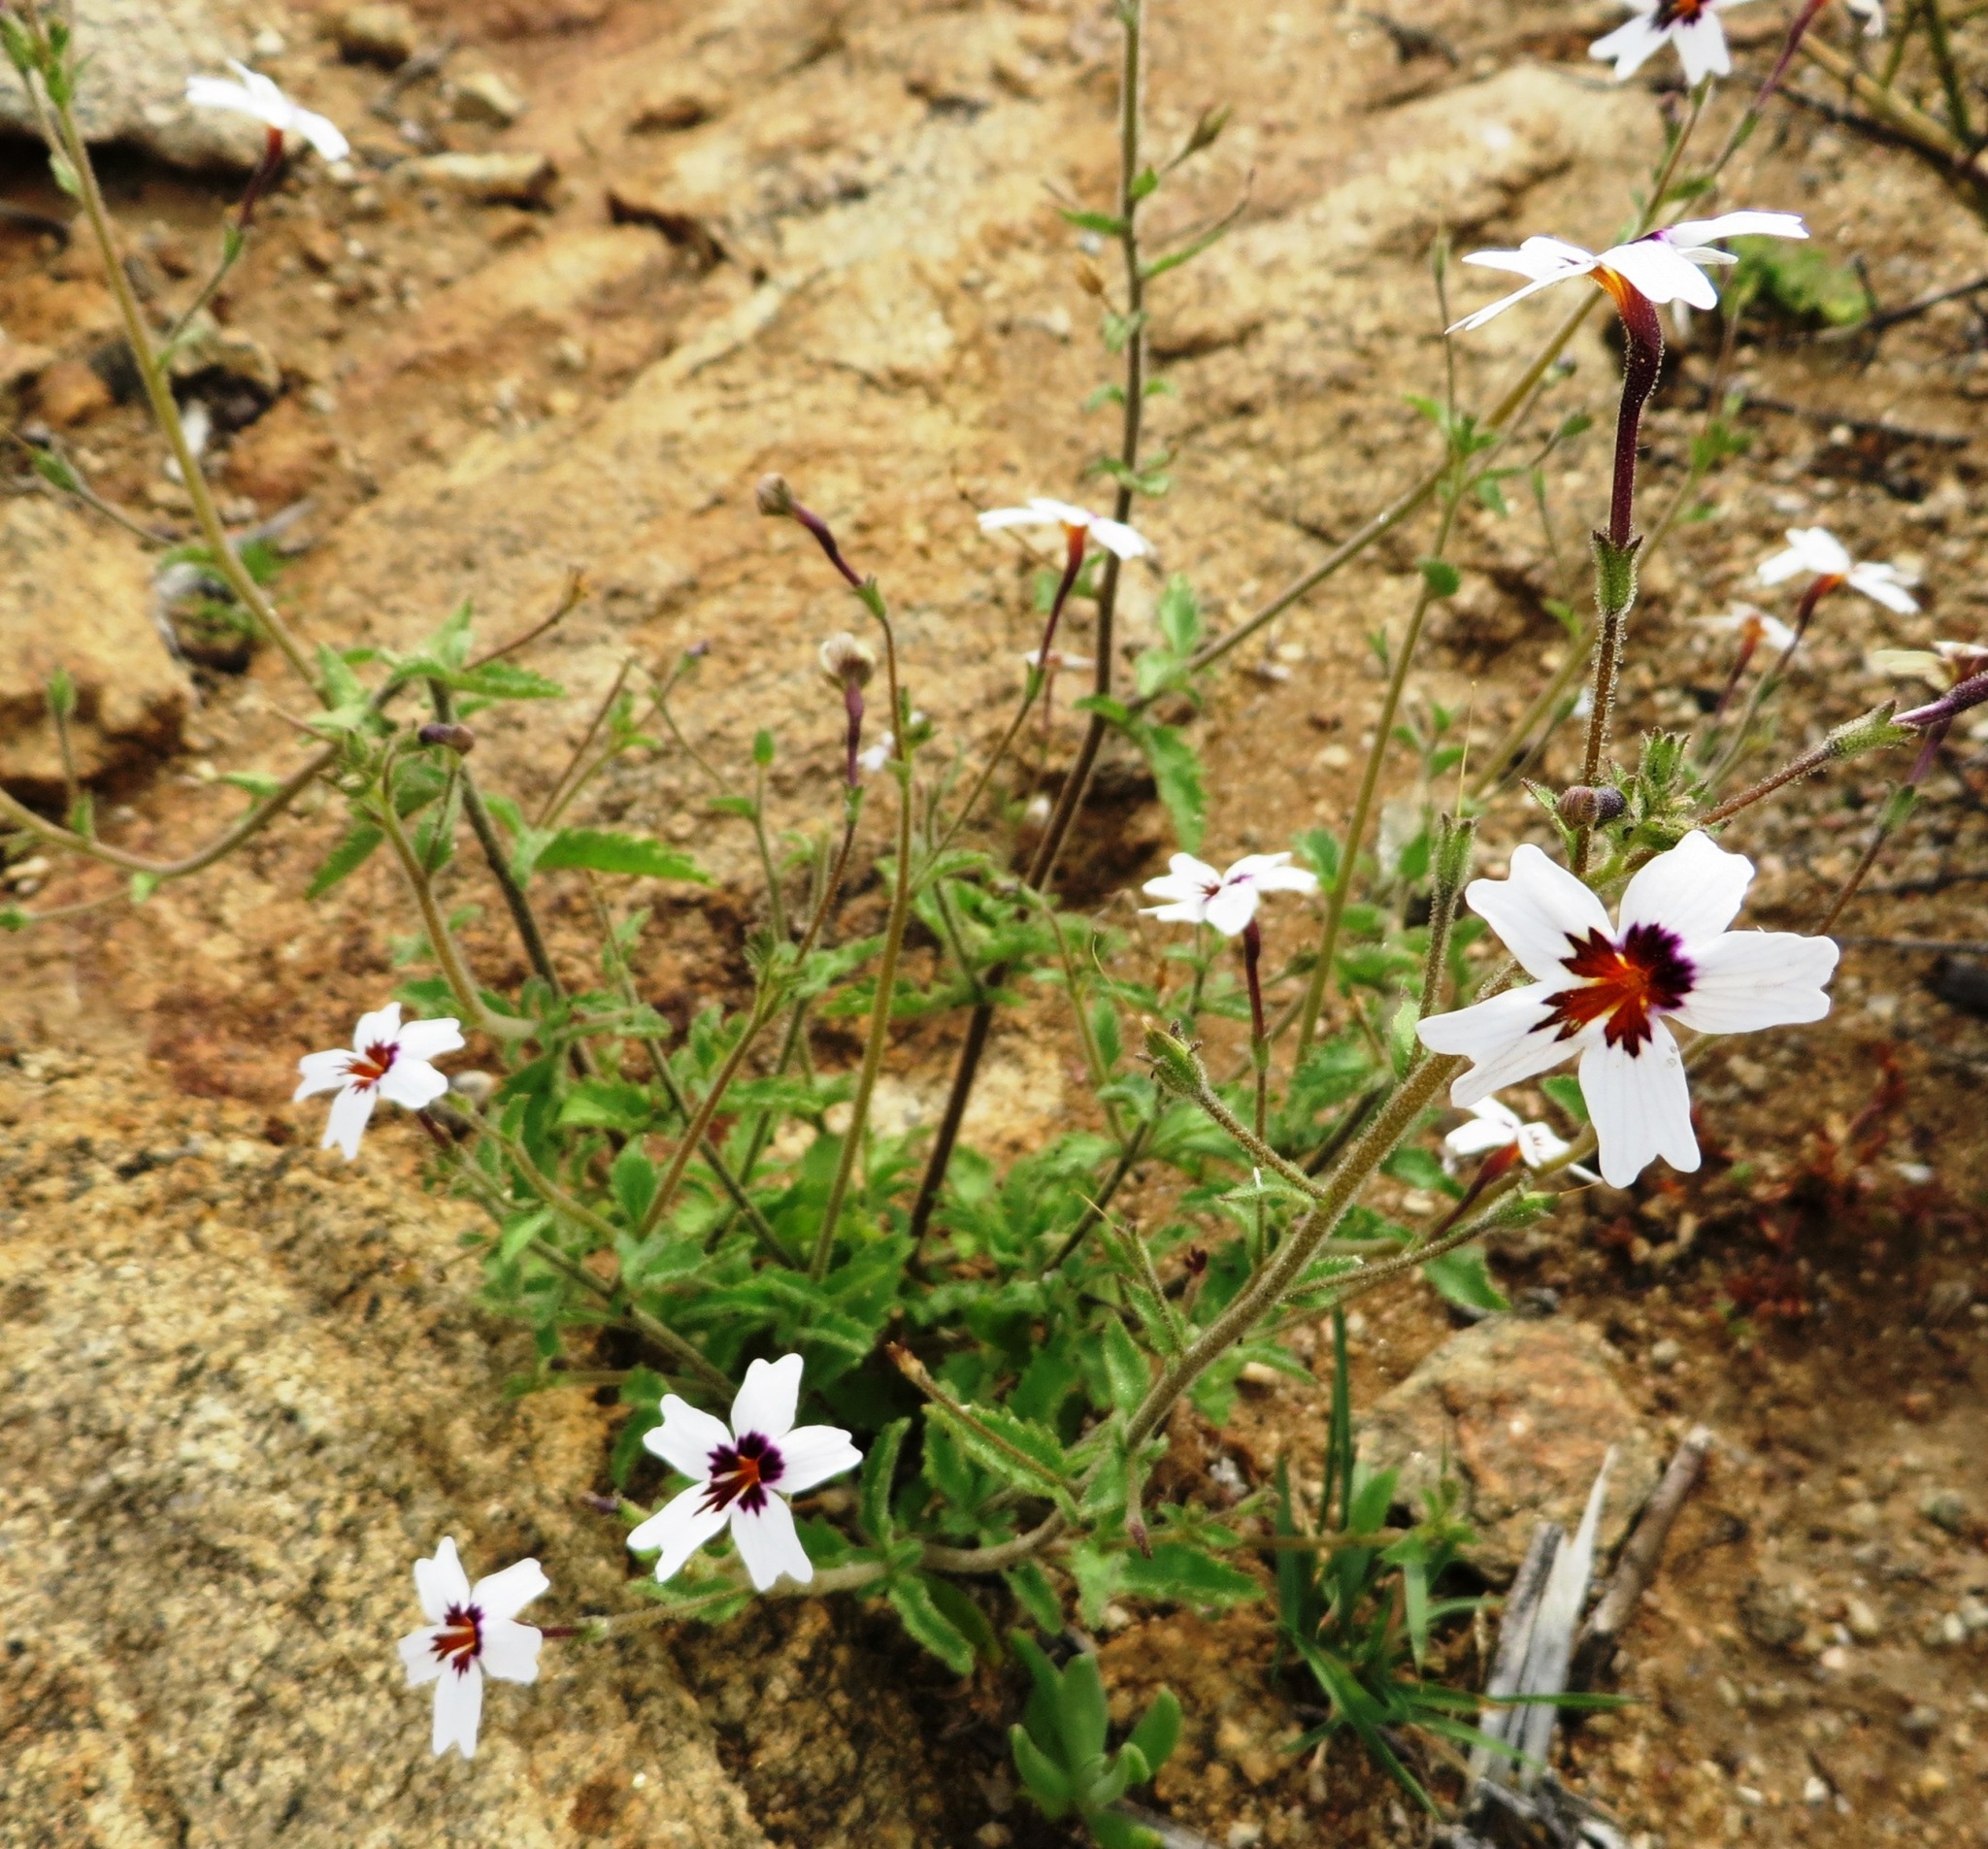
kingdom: Plantae
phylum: Tracheophyta
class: Magnoliopsida
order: Lamiales
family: Scrophulariaceae
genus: Jamesbrittenia
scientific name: Jamesbrittenia racemosa
